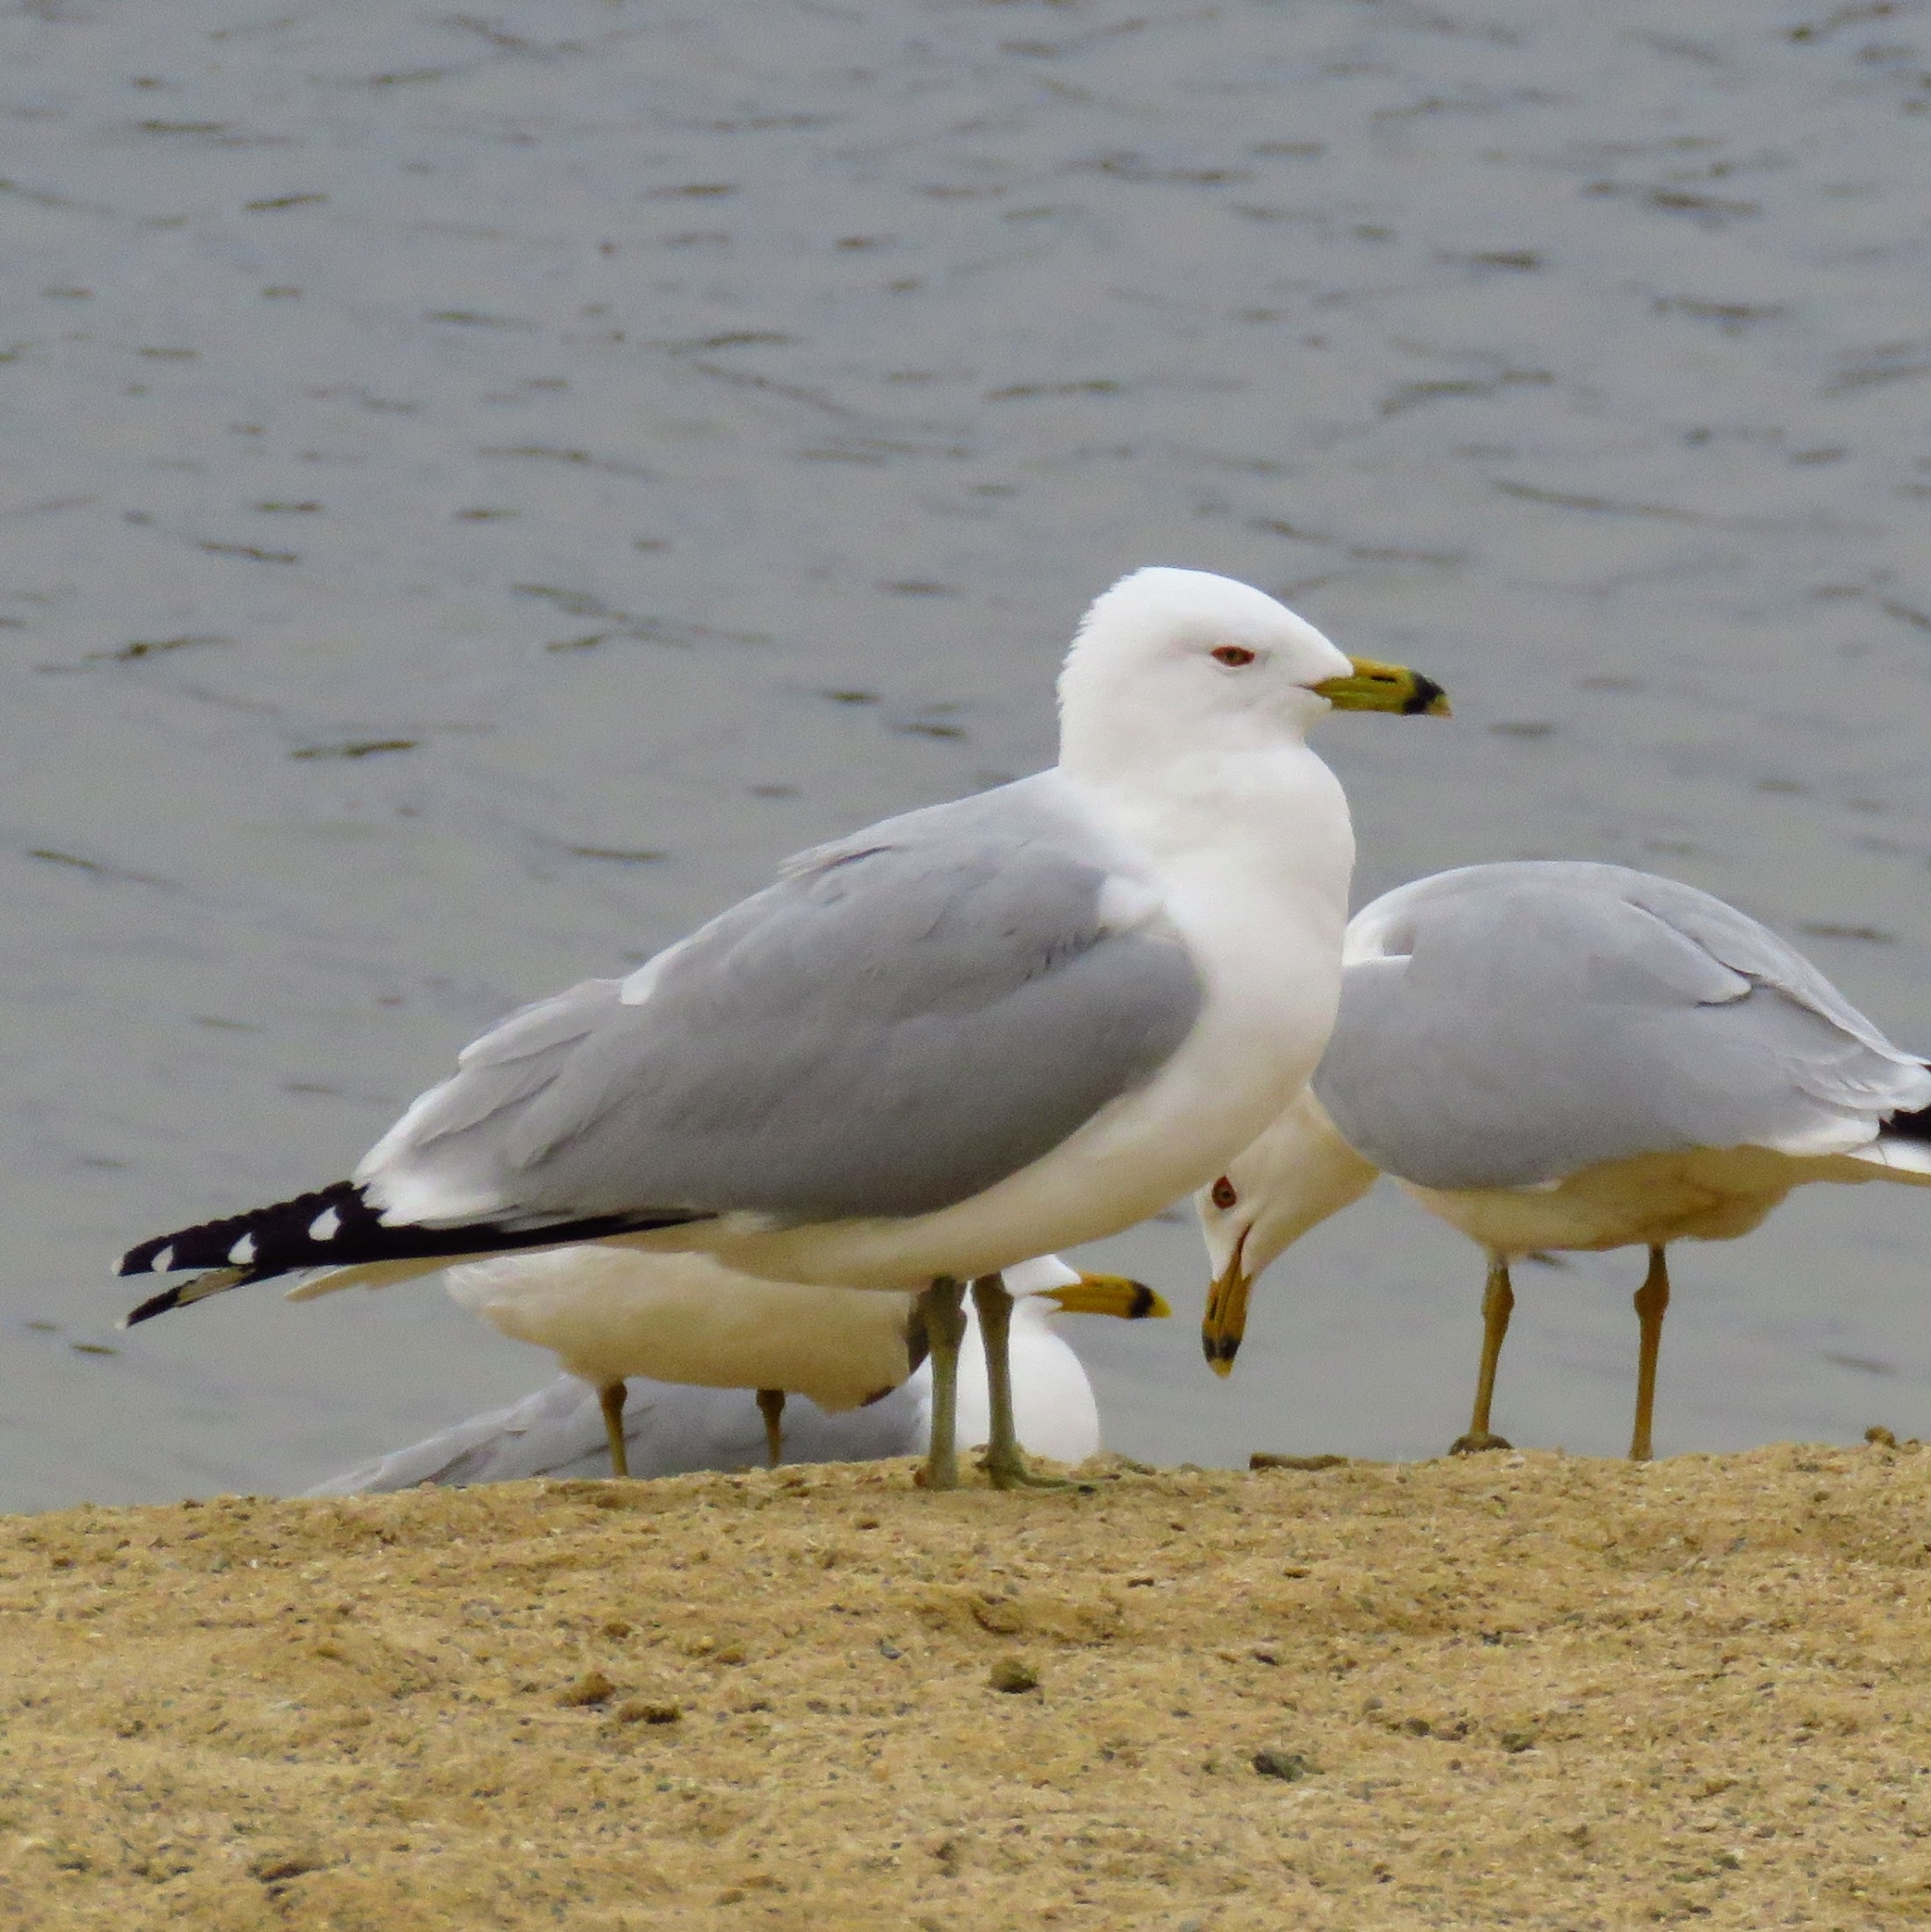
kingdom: Animalia
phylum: Chordata
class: Aves
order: Charadriiformes
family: Laridae
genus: Larus
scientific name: Larus delawarensis
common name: Ring-billed gull
